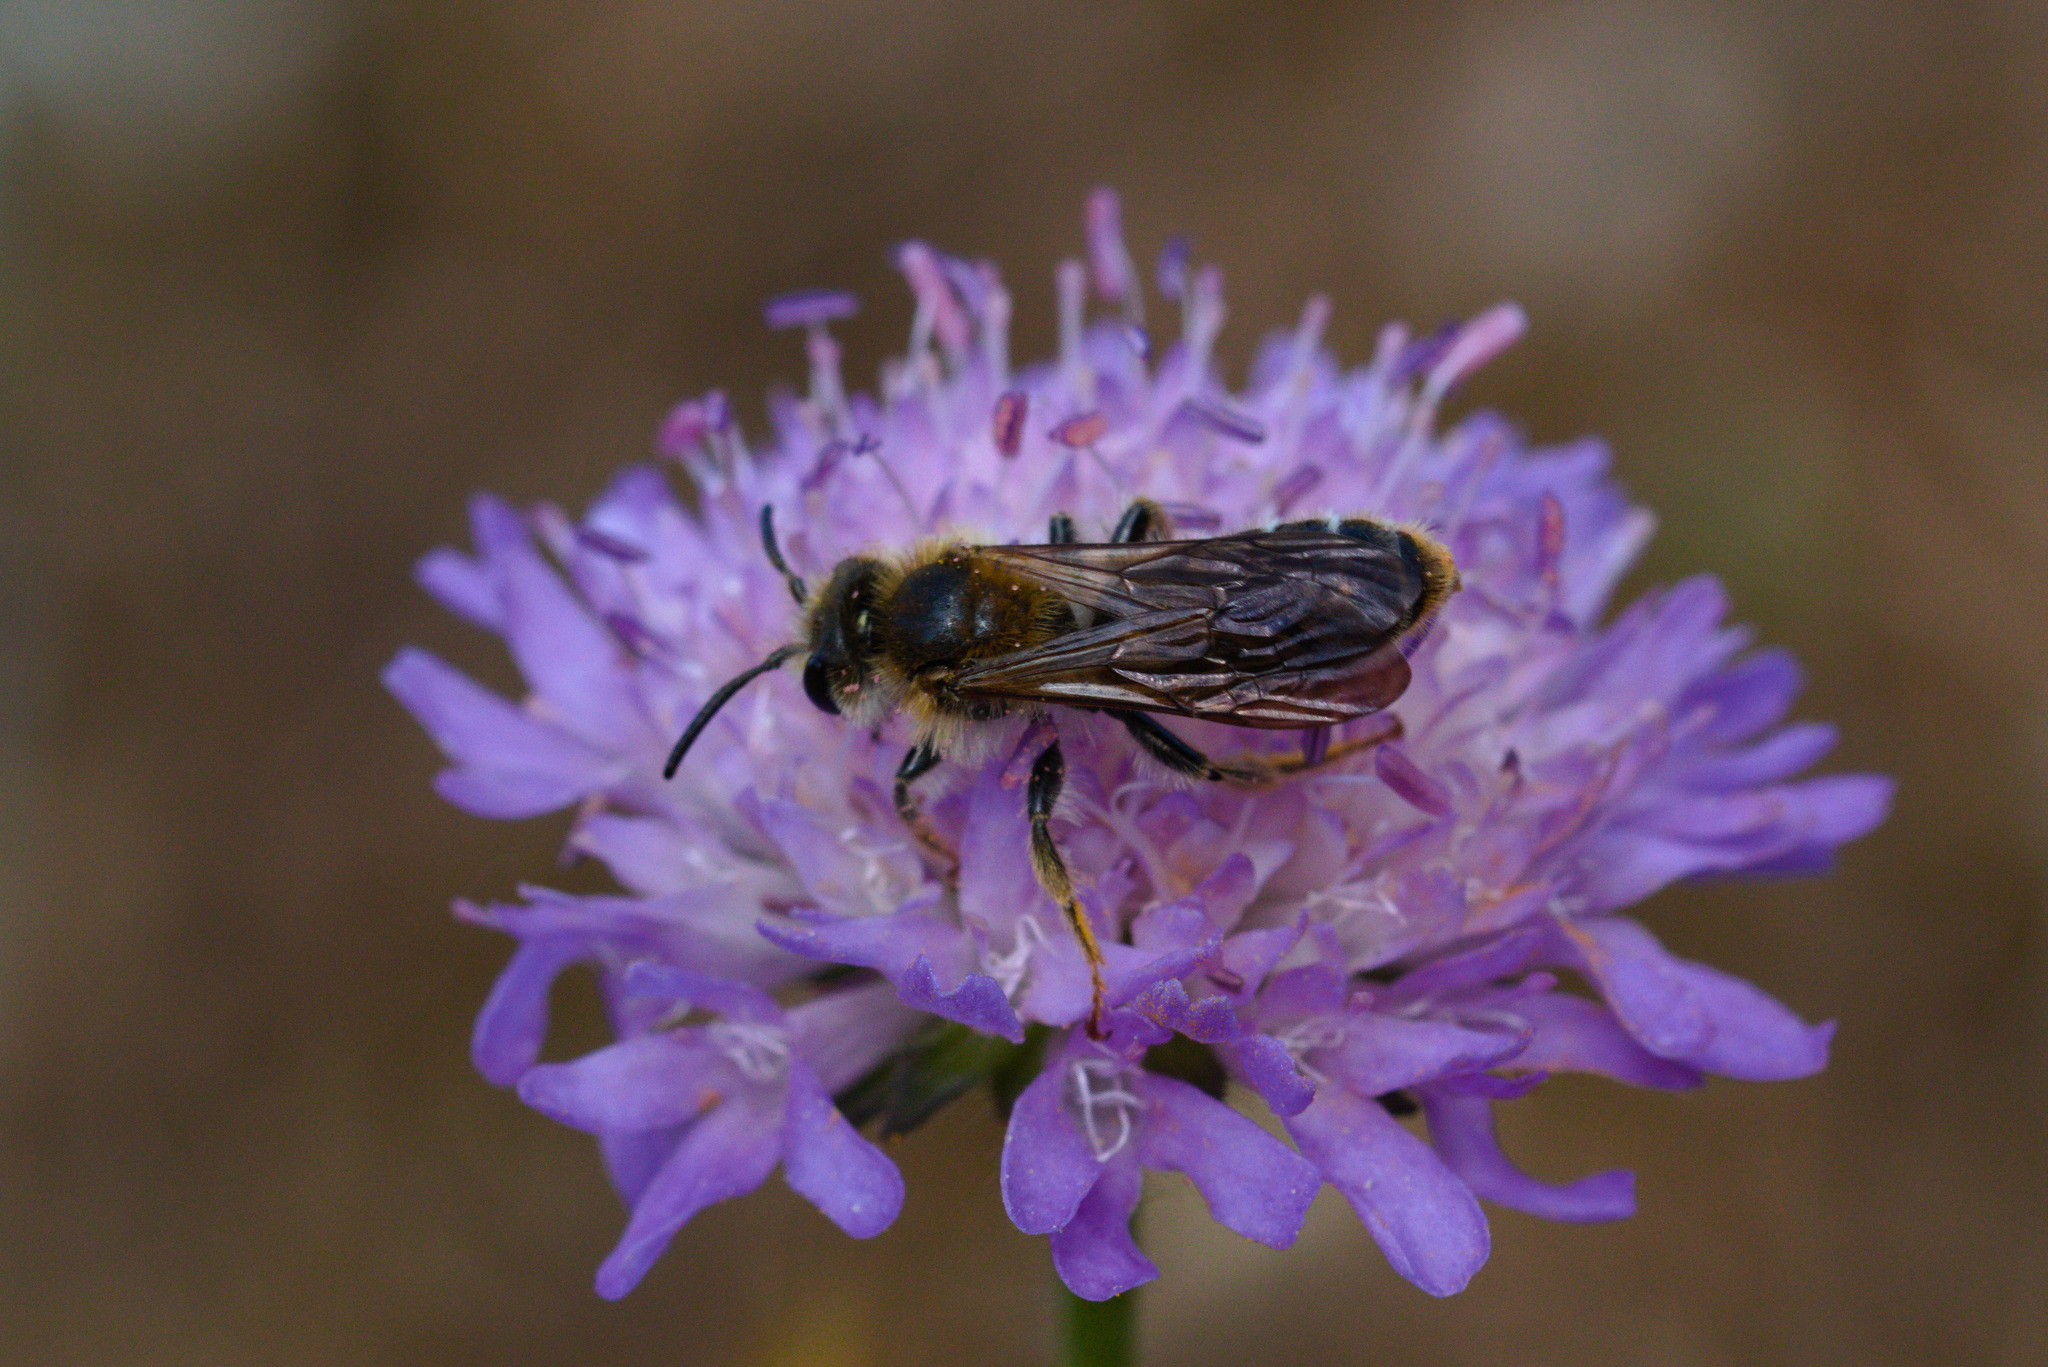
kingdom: Animalia
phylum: Arthropoda
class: Insecta
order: Hymenoptera
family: Andrenidae
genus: Andrena
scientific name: Andrena hattorfiana
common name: Large scabious mining bee
